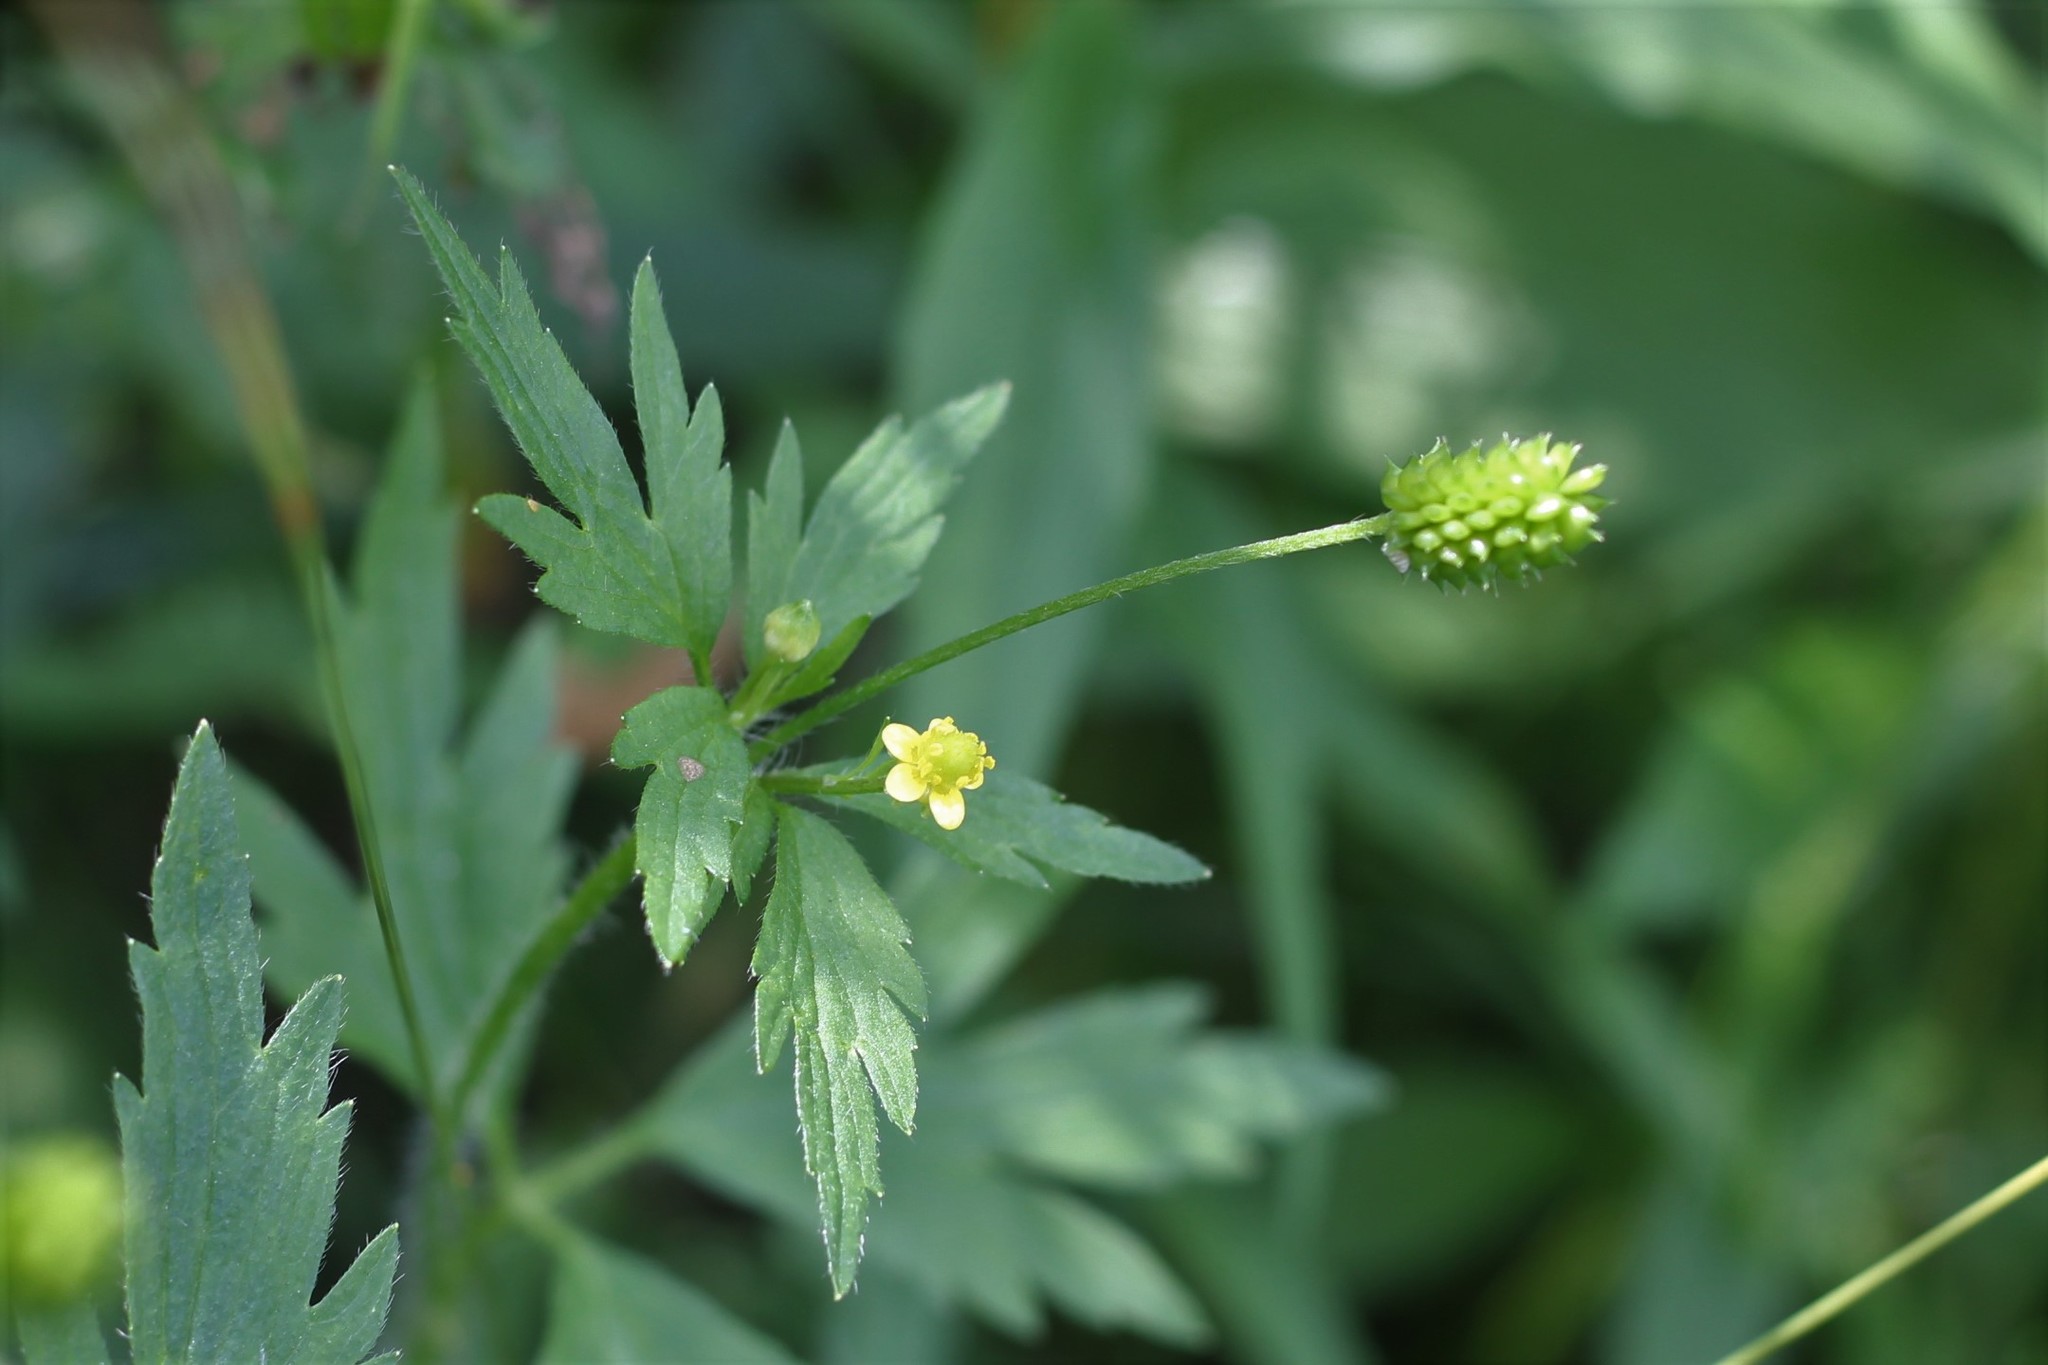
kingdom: Plantae
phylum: Tracheophyta
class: Magnoliopsida
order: Ranunculales
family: Ranunculaceae
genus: Ranunculus
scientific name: Ranunculus pensylvanicus
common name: Bristly buttercup
